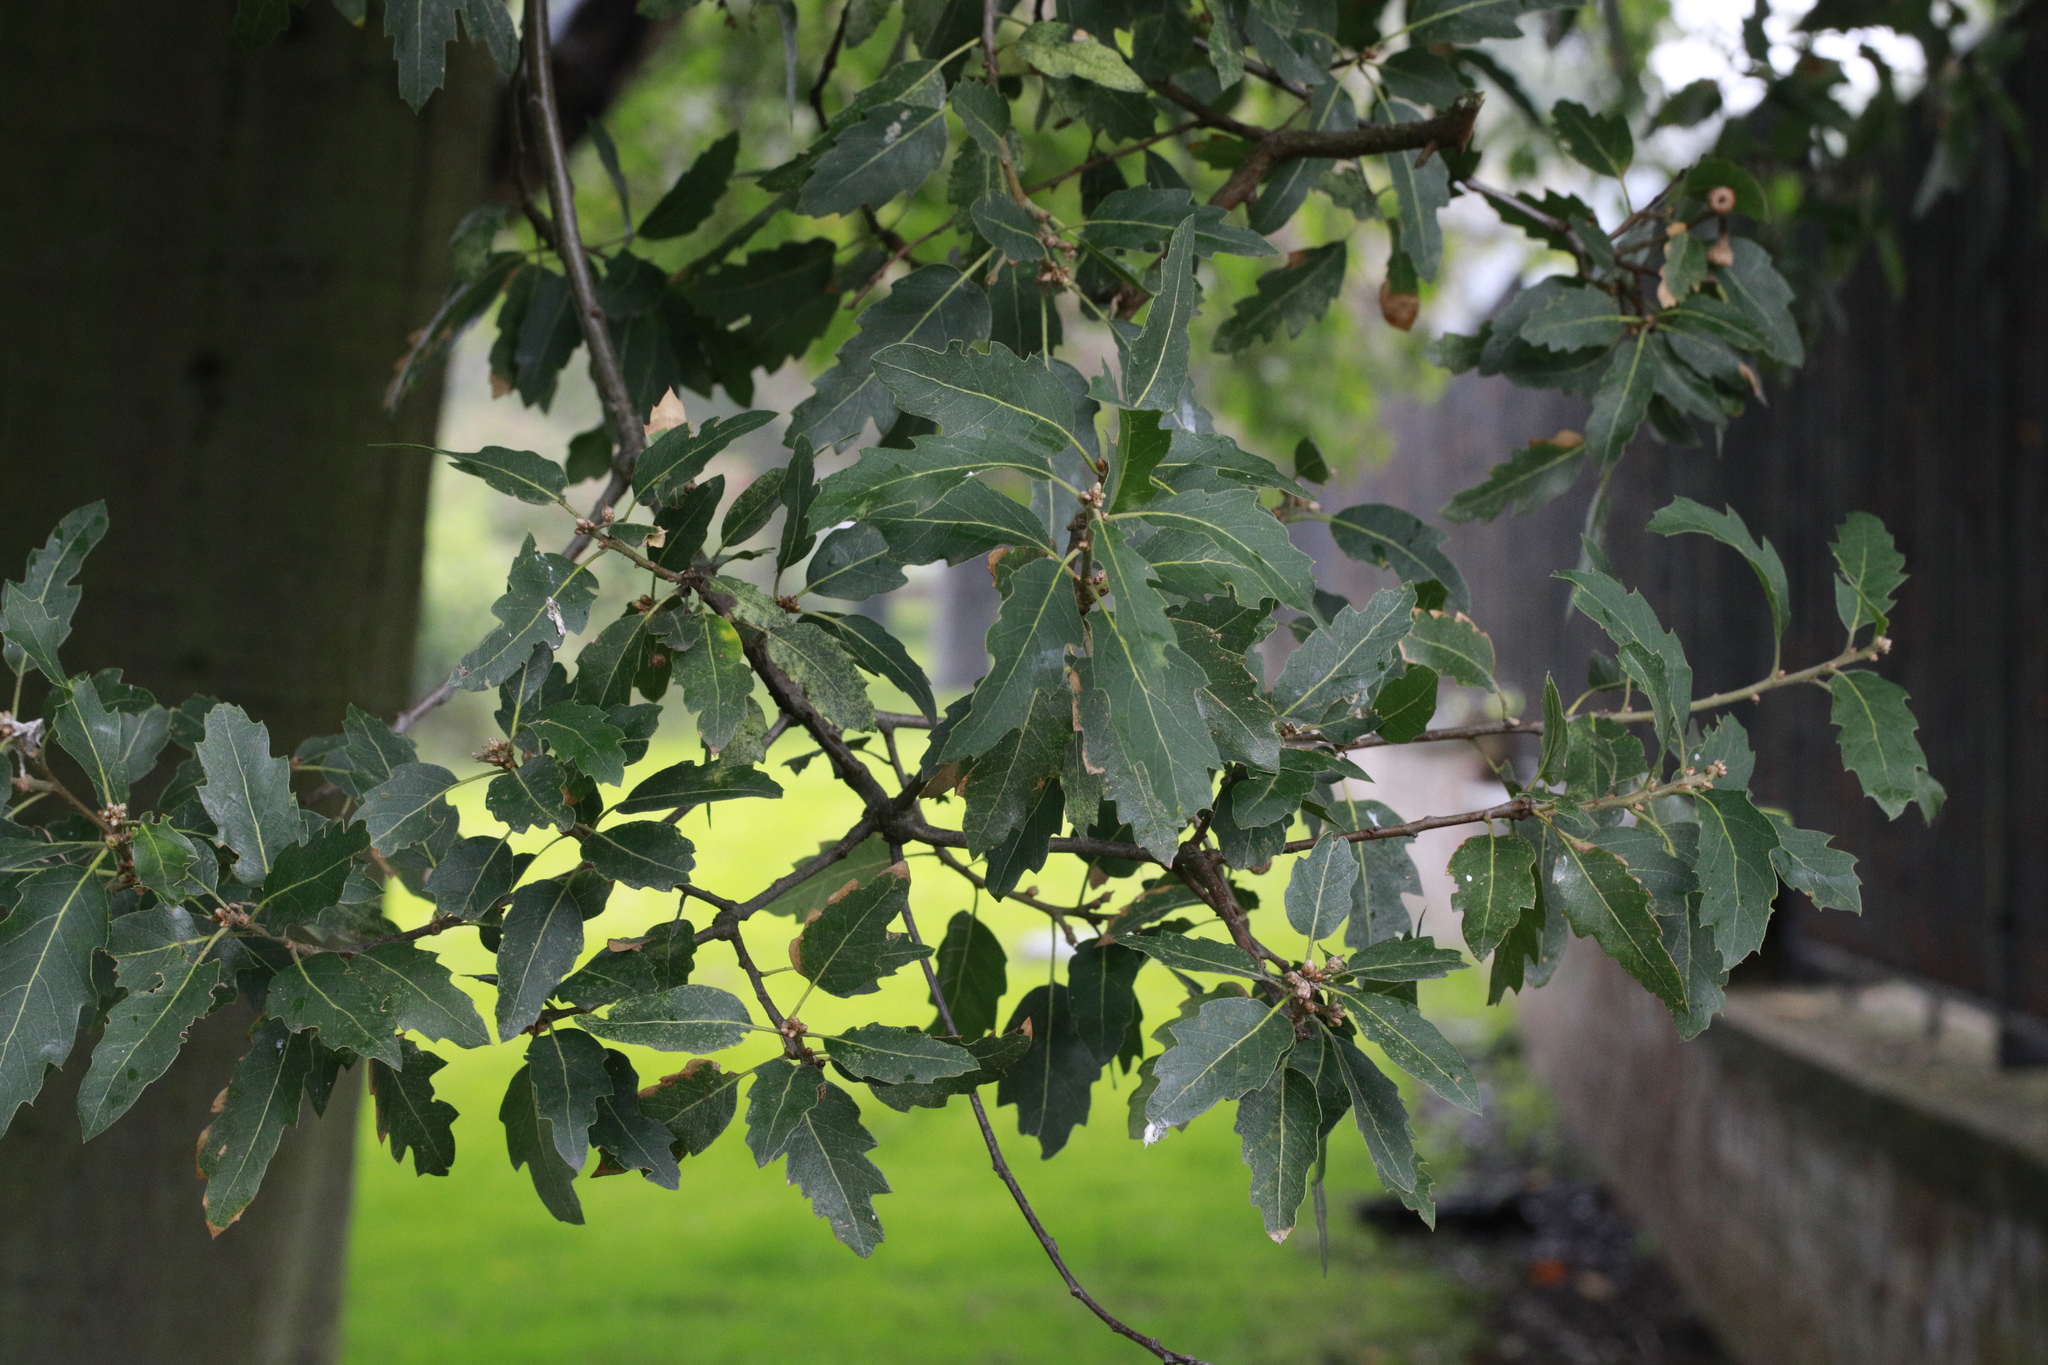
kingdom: Plantae
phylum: Tracheophyta
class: Magnoliopsida
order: Fagales
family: Fagaceae
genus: Quercus
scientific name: Quercus ilex
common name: Evergreen oak
